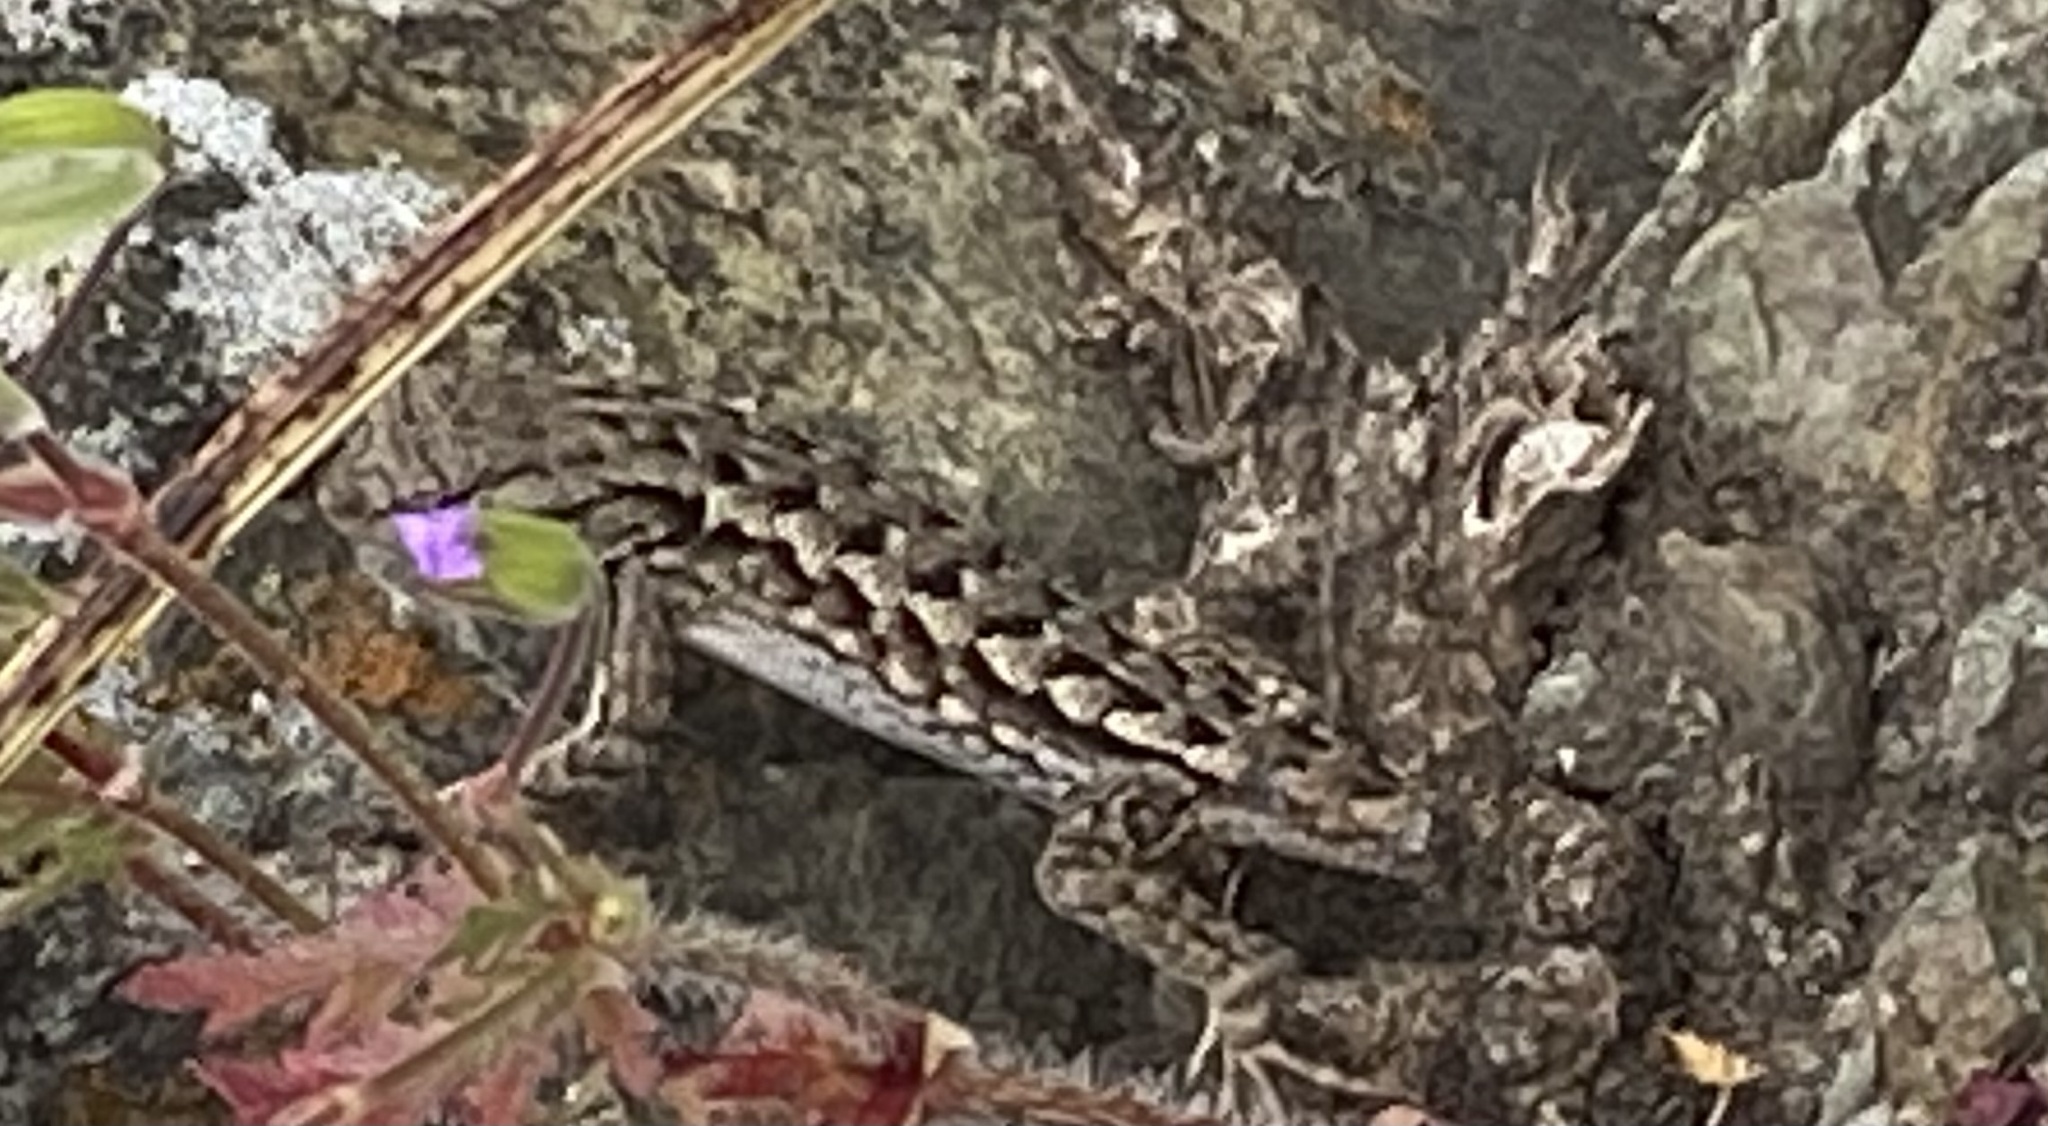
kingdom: Animalia
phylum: Chordata
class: Squamata
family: Phrynosomatidae
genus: Sceloporus
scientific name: Sceloporus occidentalis
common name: Western fence lizard
